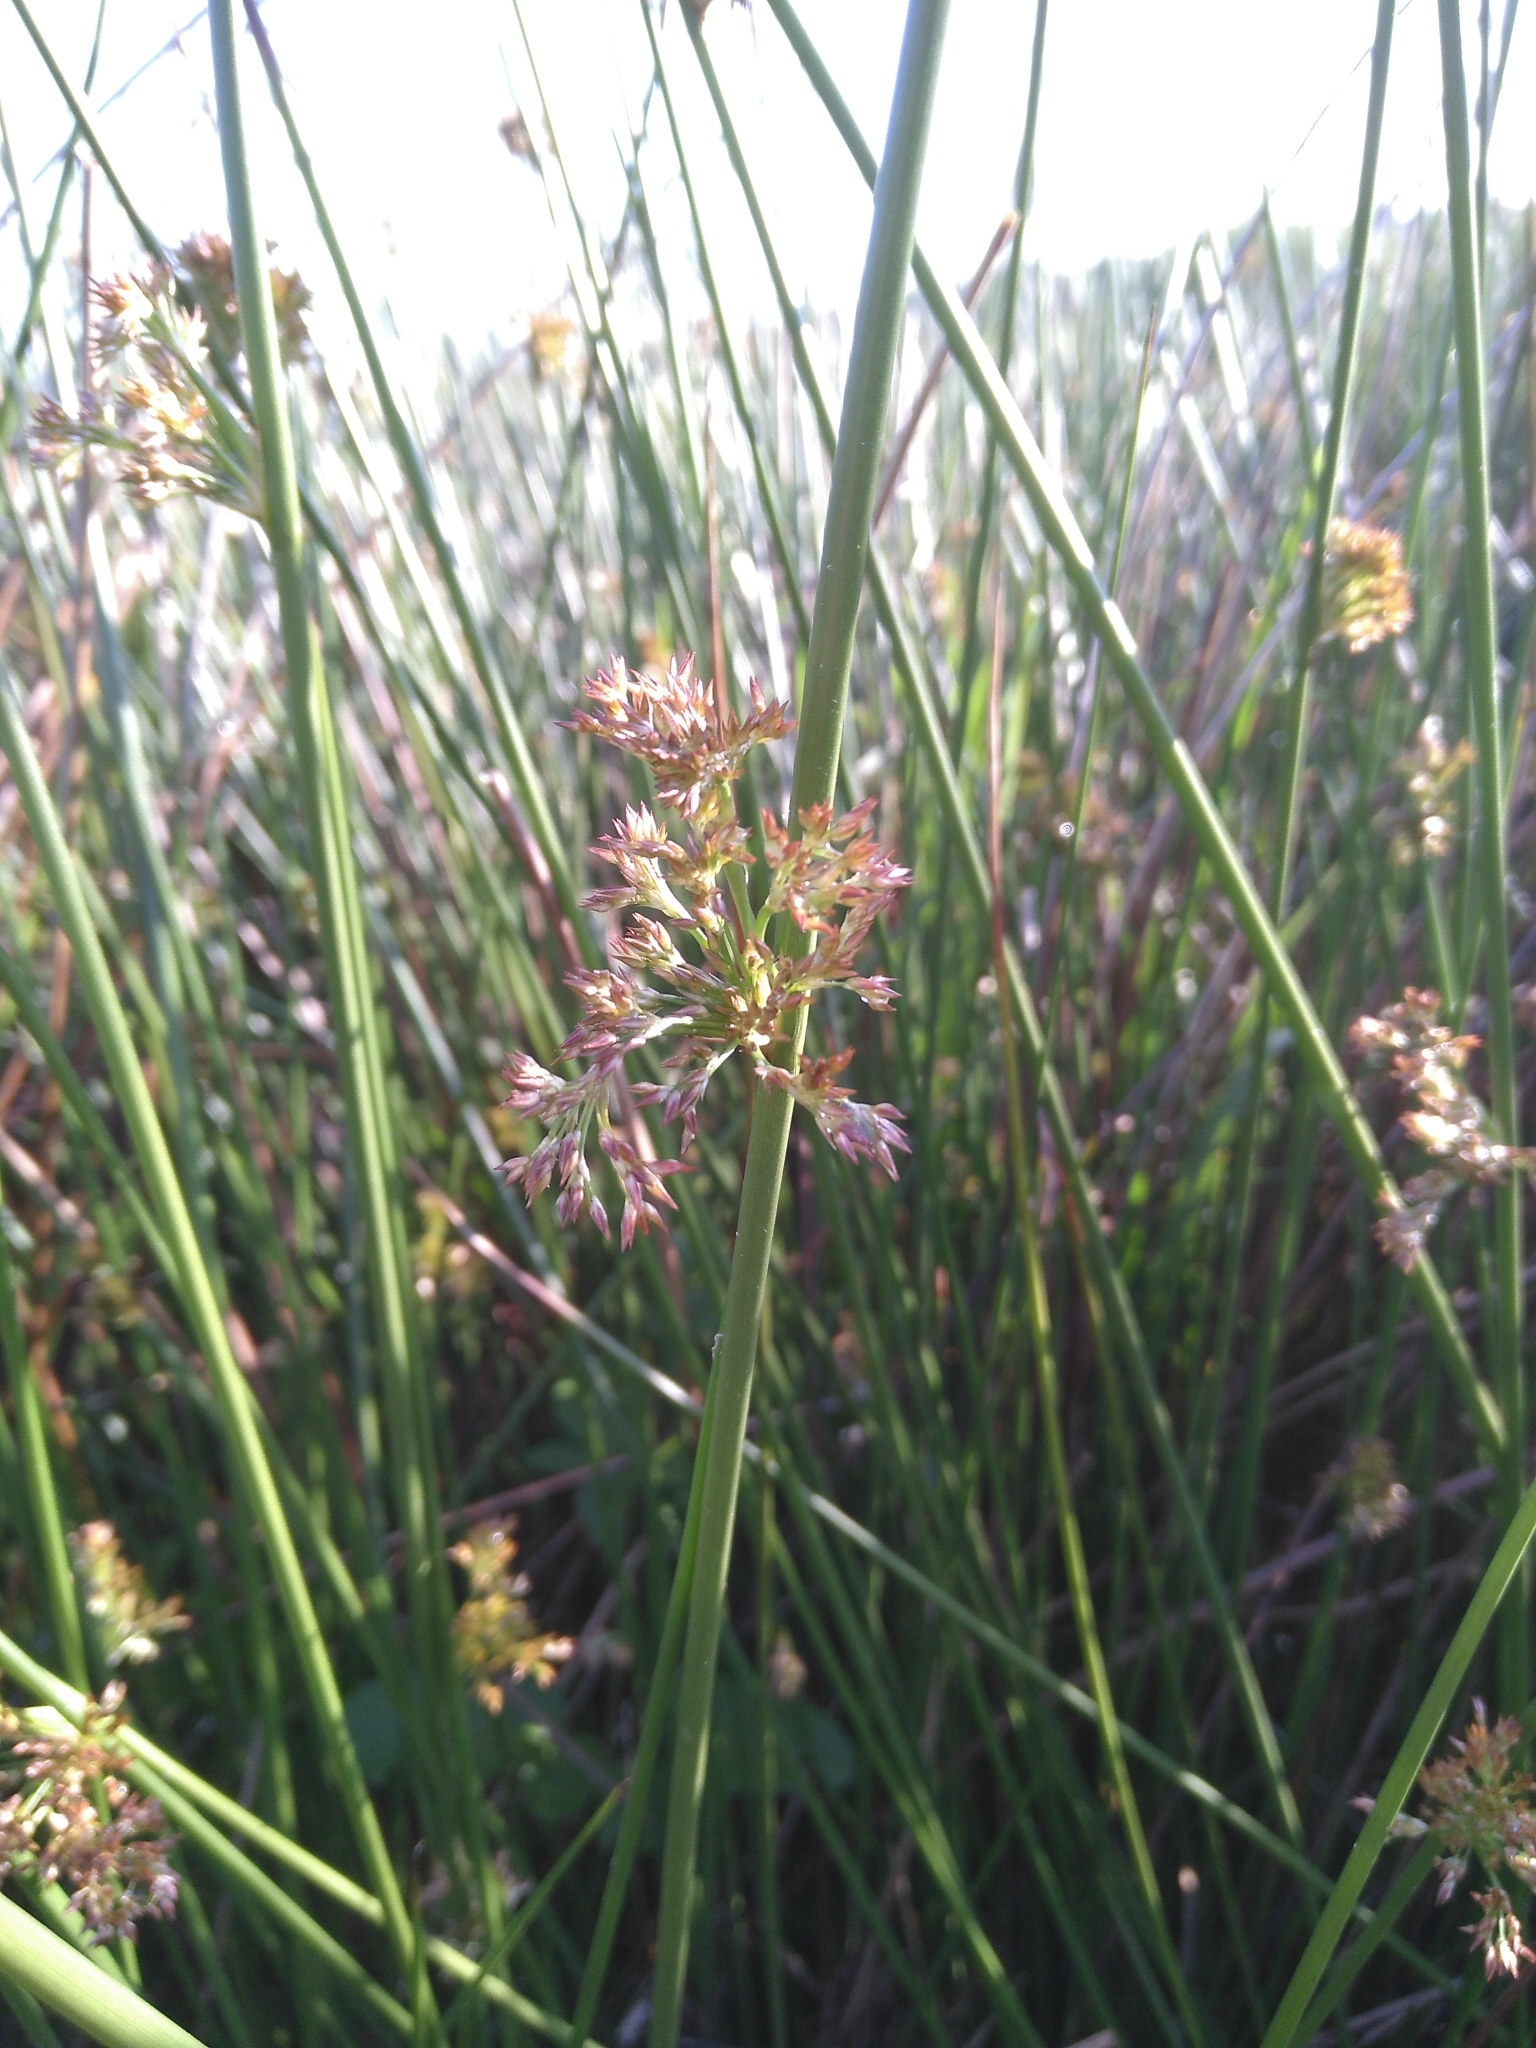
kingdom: Plantae
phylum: Tracheophyta
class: Liliopsida
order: Poales
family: Juncaceae
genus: Juncus
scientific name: Juncus effusus
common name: Soft rush
